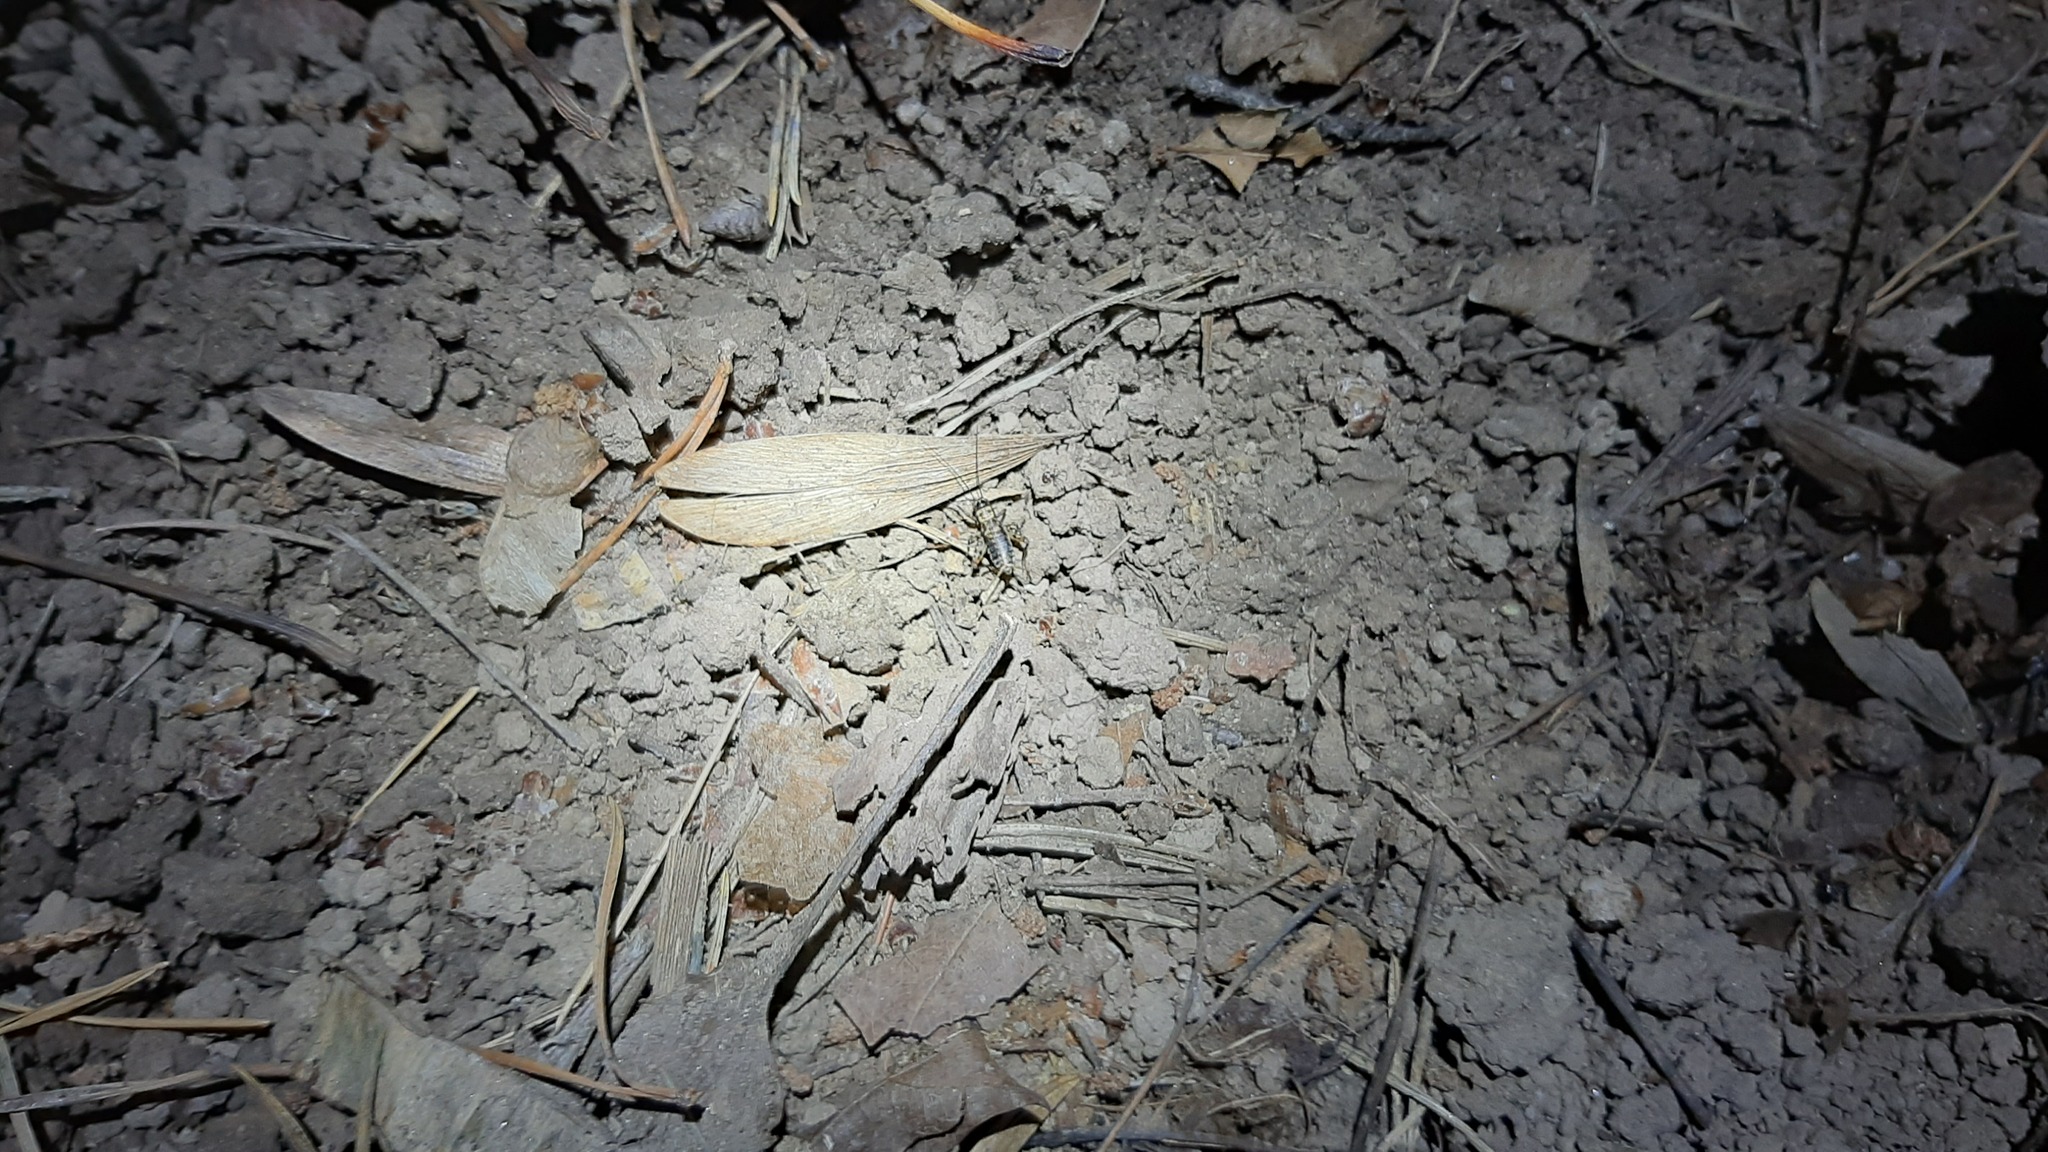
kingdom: Animalia
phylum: Arthropoda
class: Insecta
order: Orthoptera
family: Trigonidiidae
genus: Nemobius
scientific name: Nemobius sylvestris
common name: Wood-cricket
